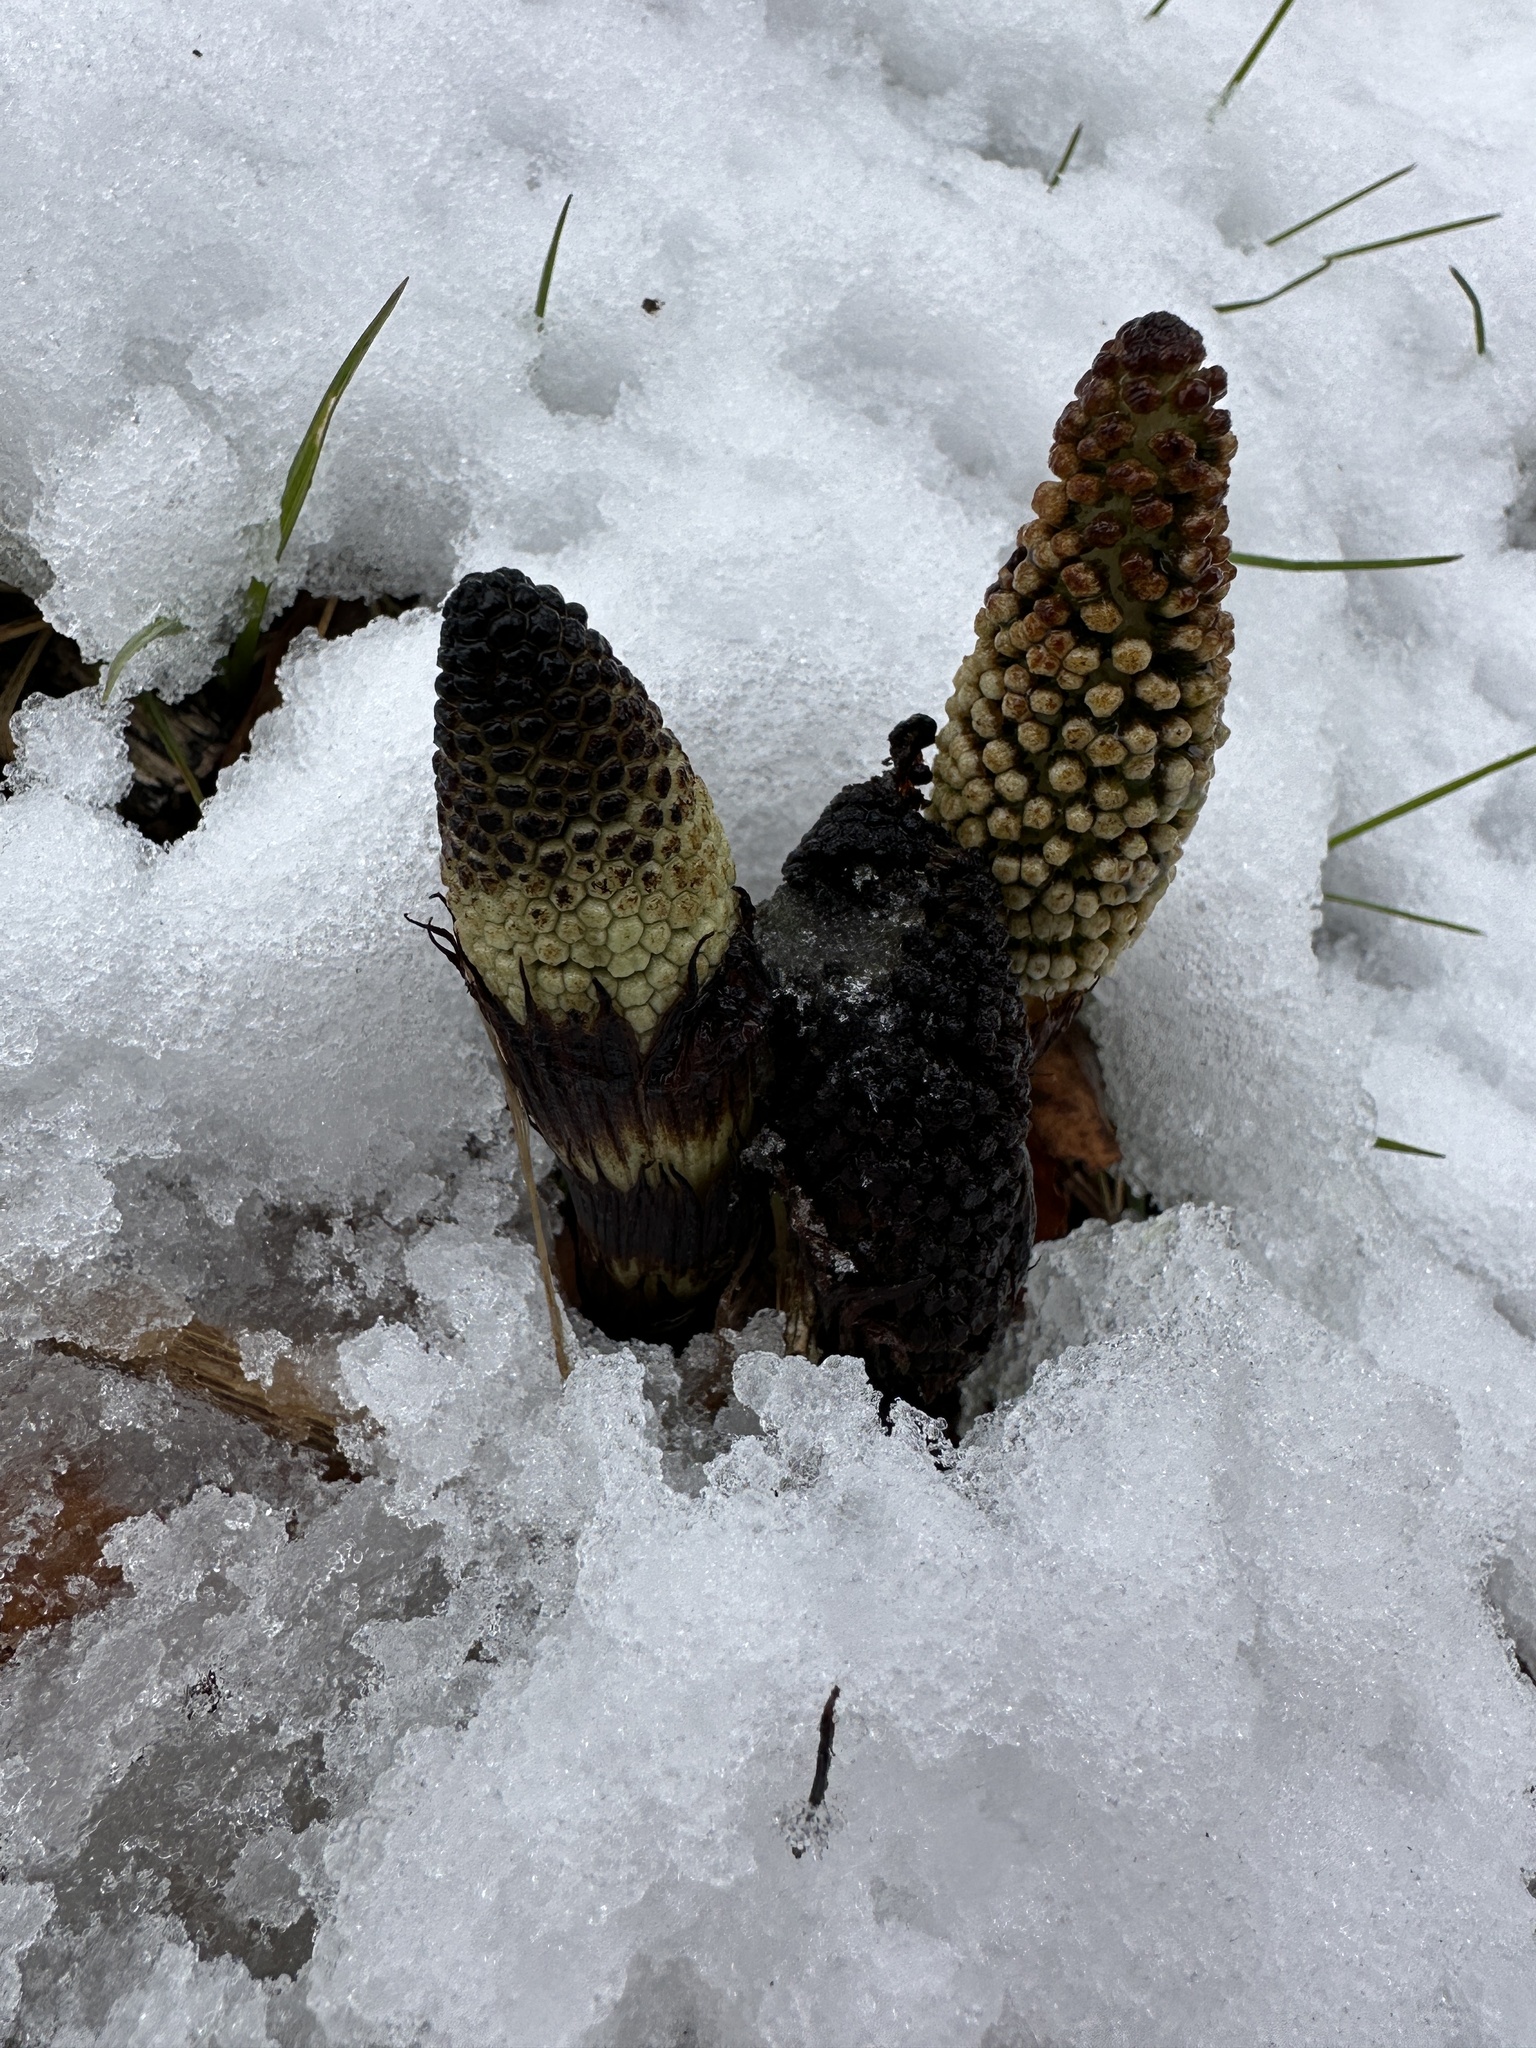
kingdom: Plantae
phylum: Tracheophyta
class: Polypodiopsida
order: Equisetales
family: Equisetaceae
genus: Equisetum
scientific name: Equisetum telmateia
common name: Great horsetail
